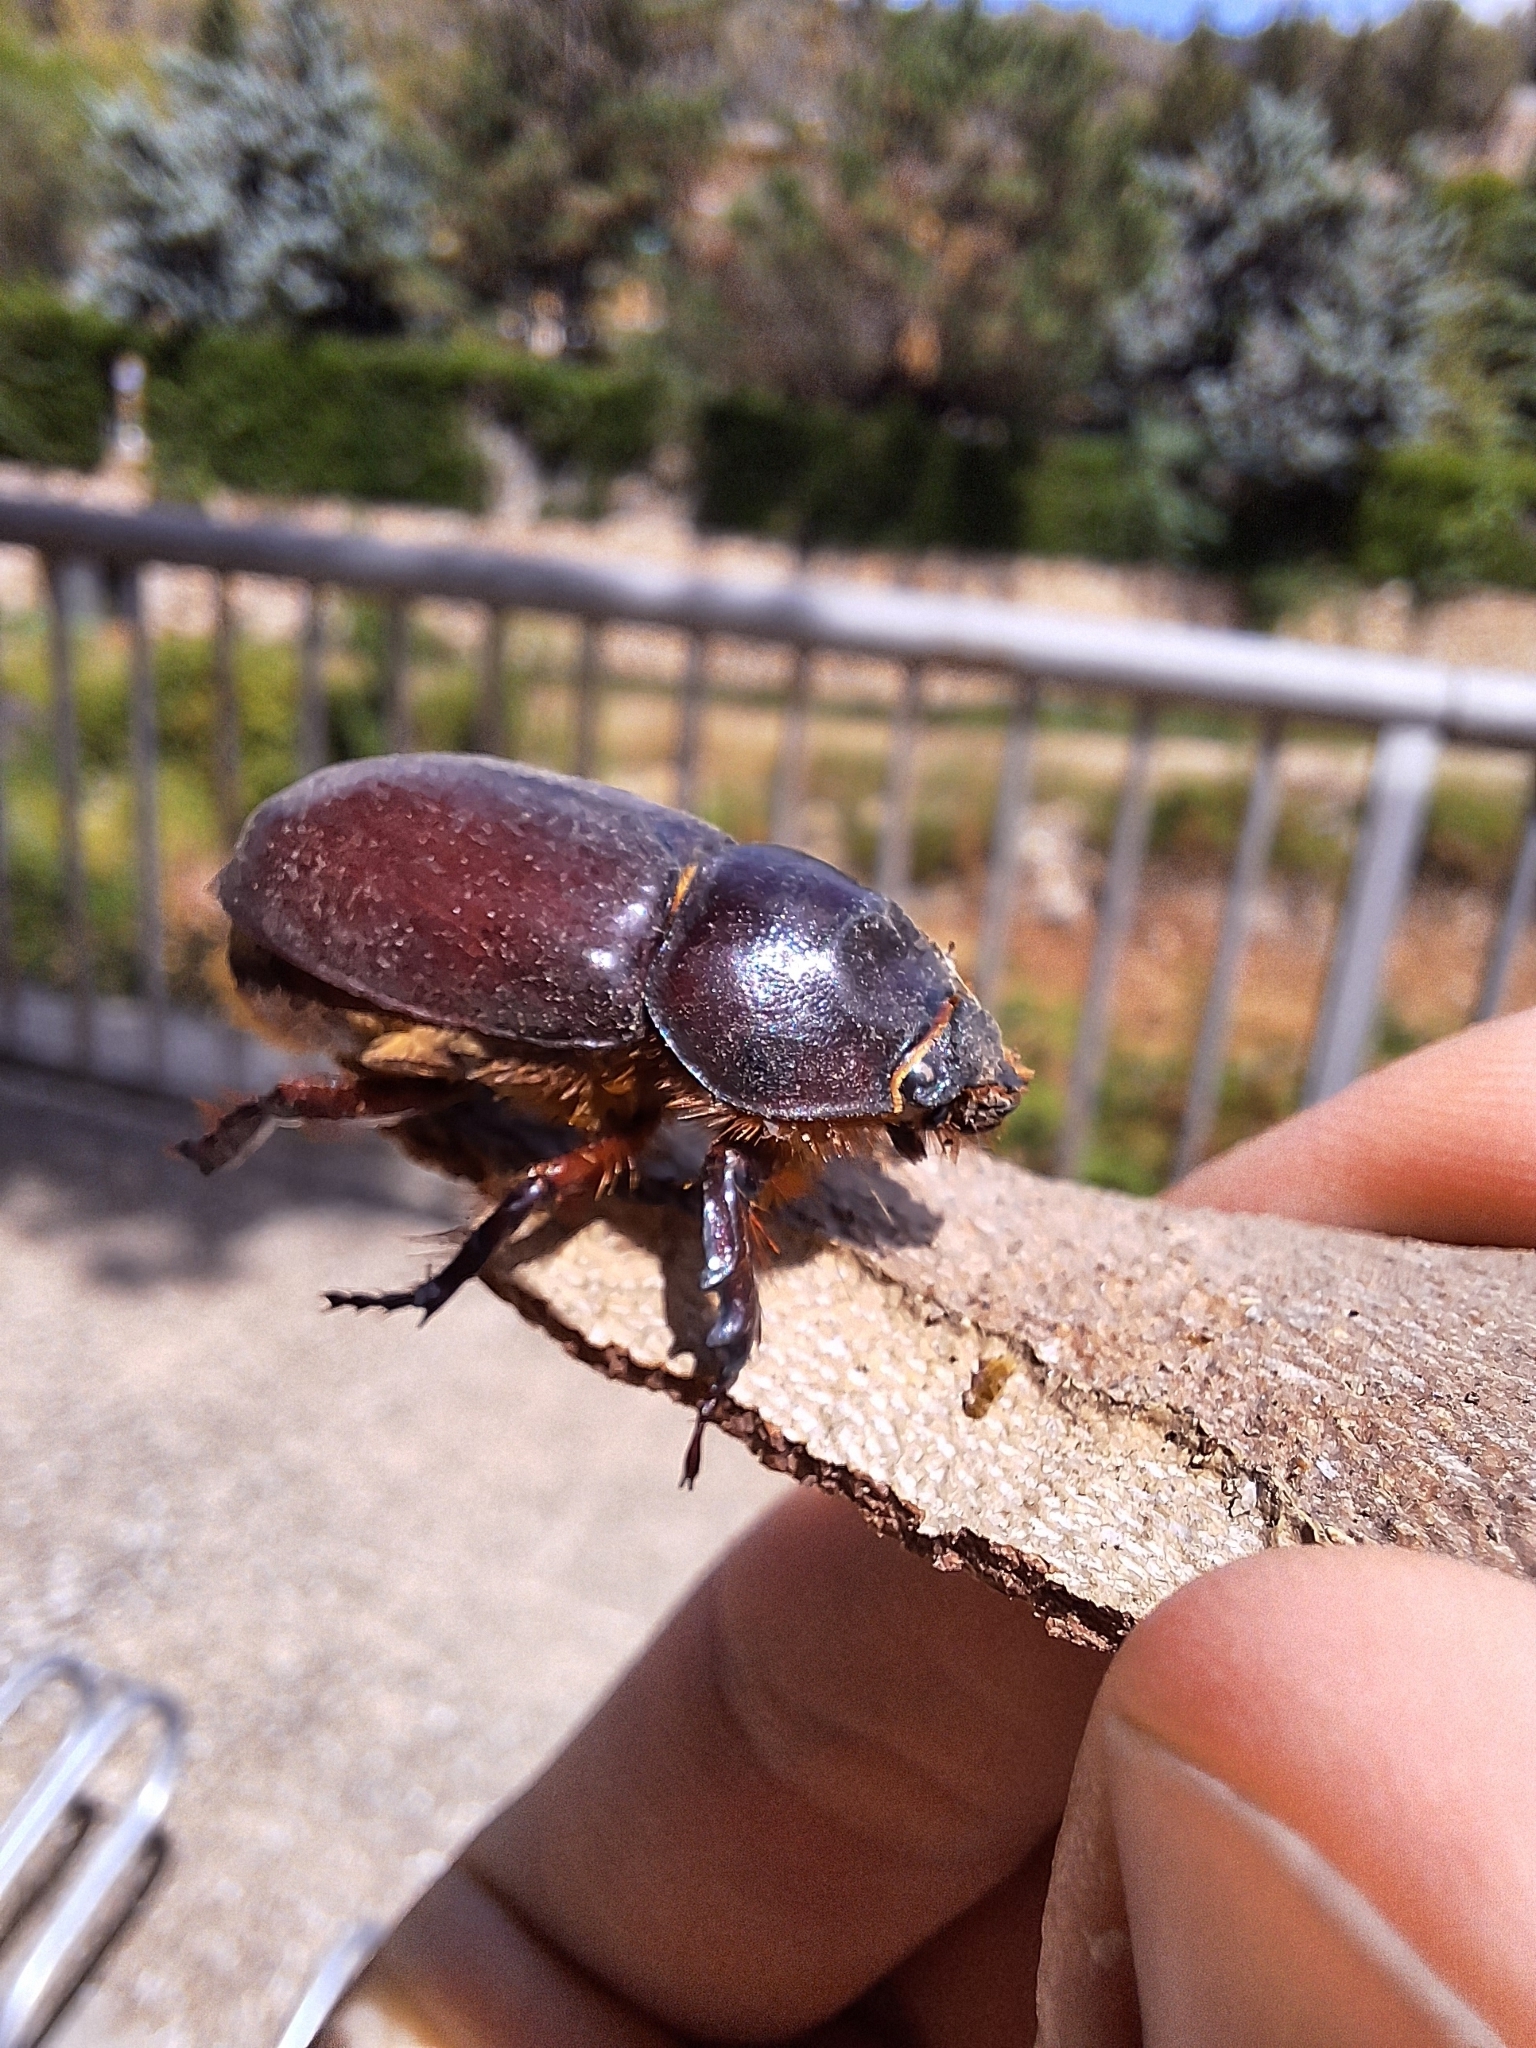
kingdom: Animalia
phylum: Arthropoda
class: Insecta
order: Coleoptera
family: Scarabaeidae
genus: Oryctes
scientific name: Oryctes nasicornis
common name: European rhinoceros beetle
